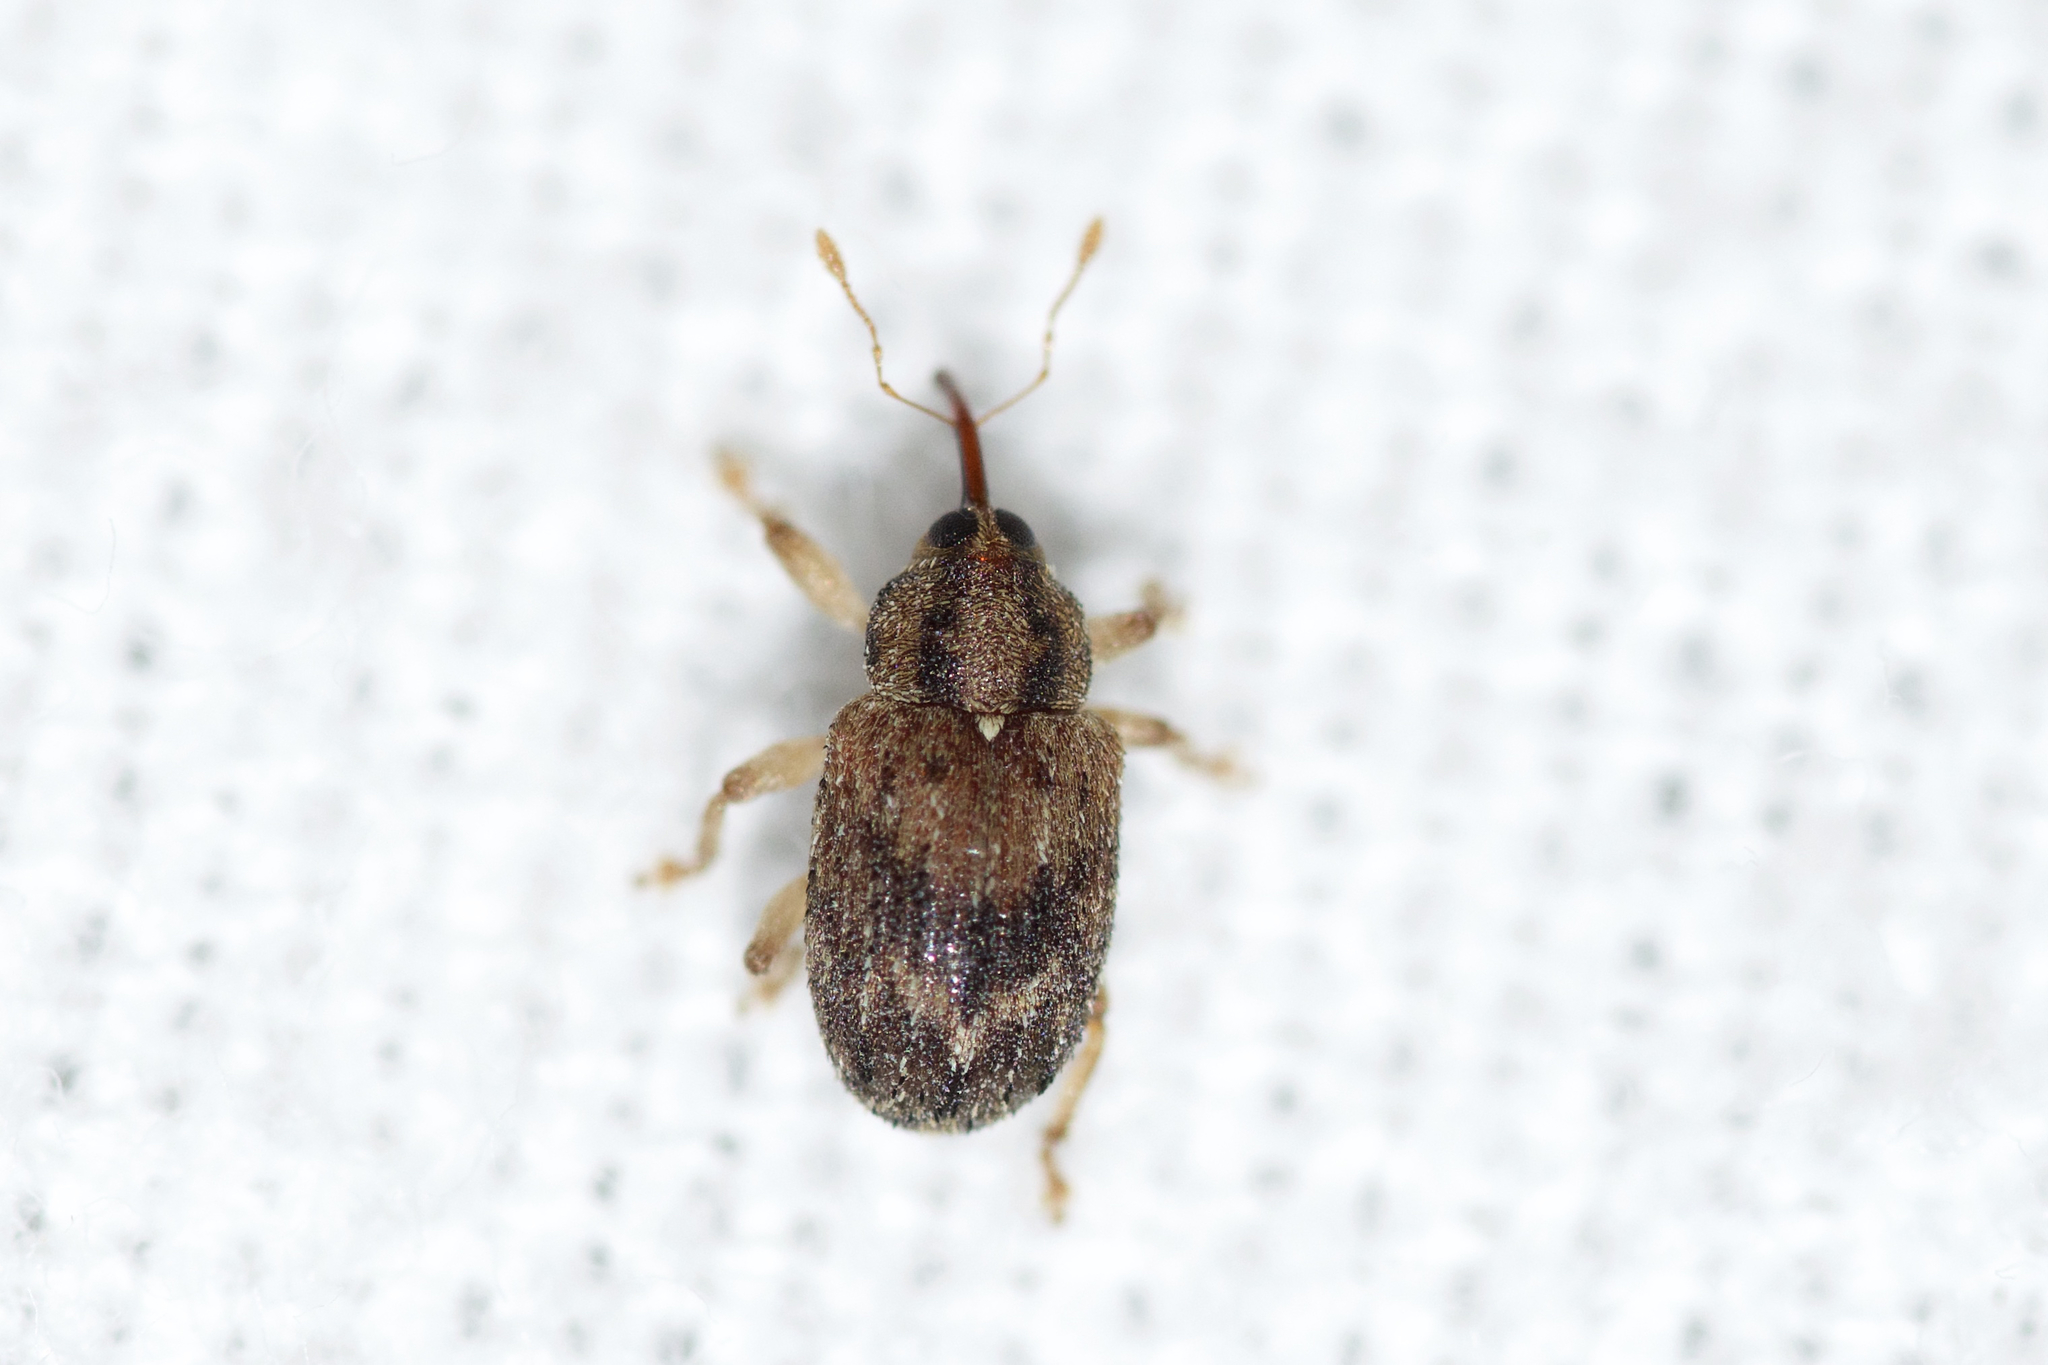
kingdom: Animalia
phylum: Arthropoda
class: Insecta
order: Coleoptera
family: Curculionidae
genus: Thysanocnemis
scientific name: Thysanocnemis bischoffi
